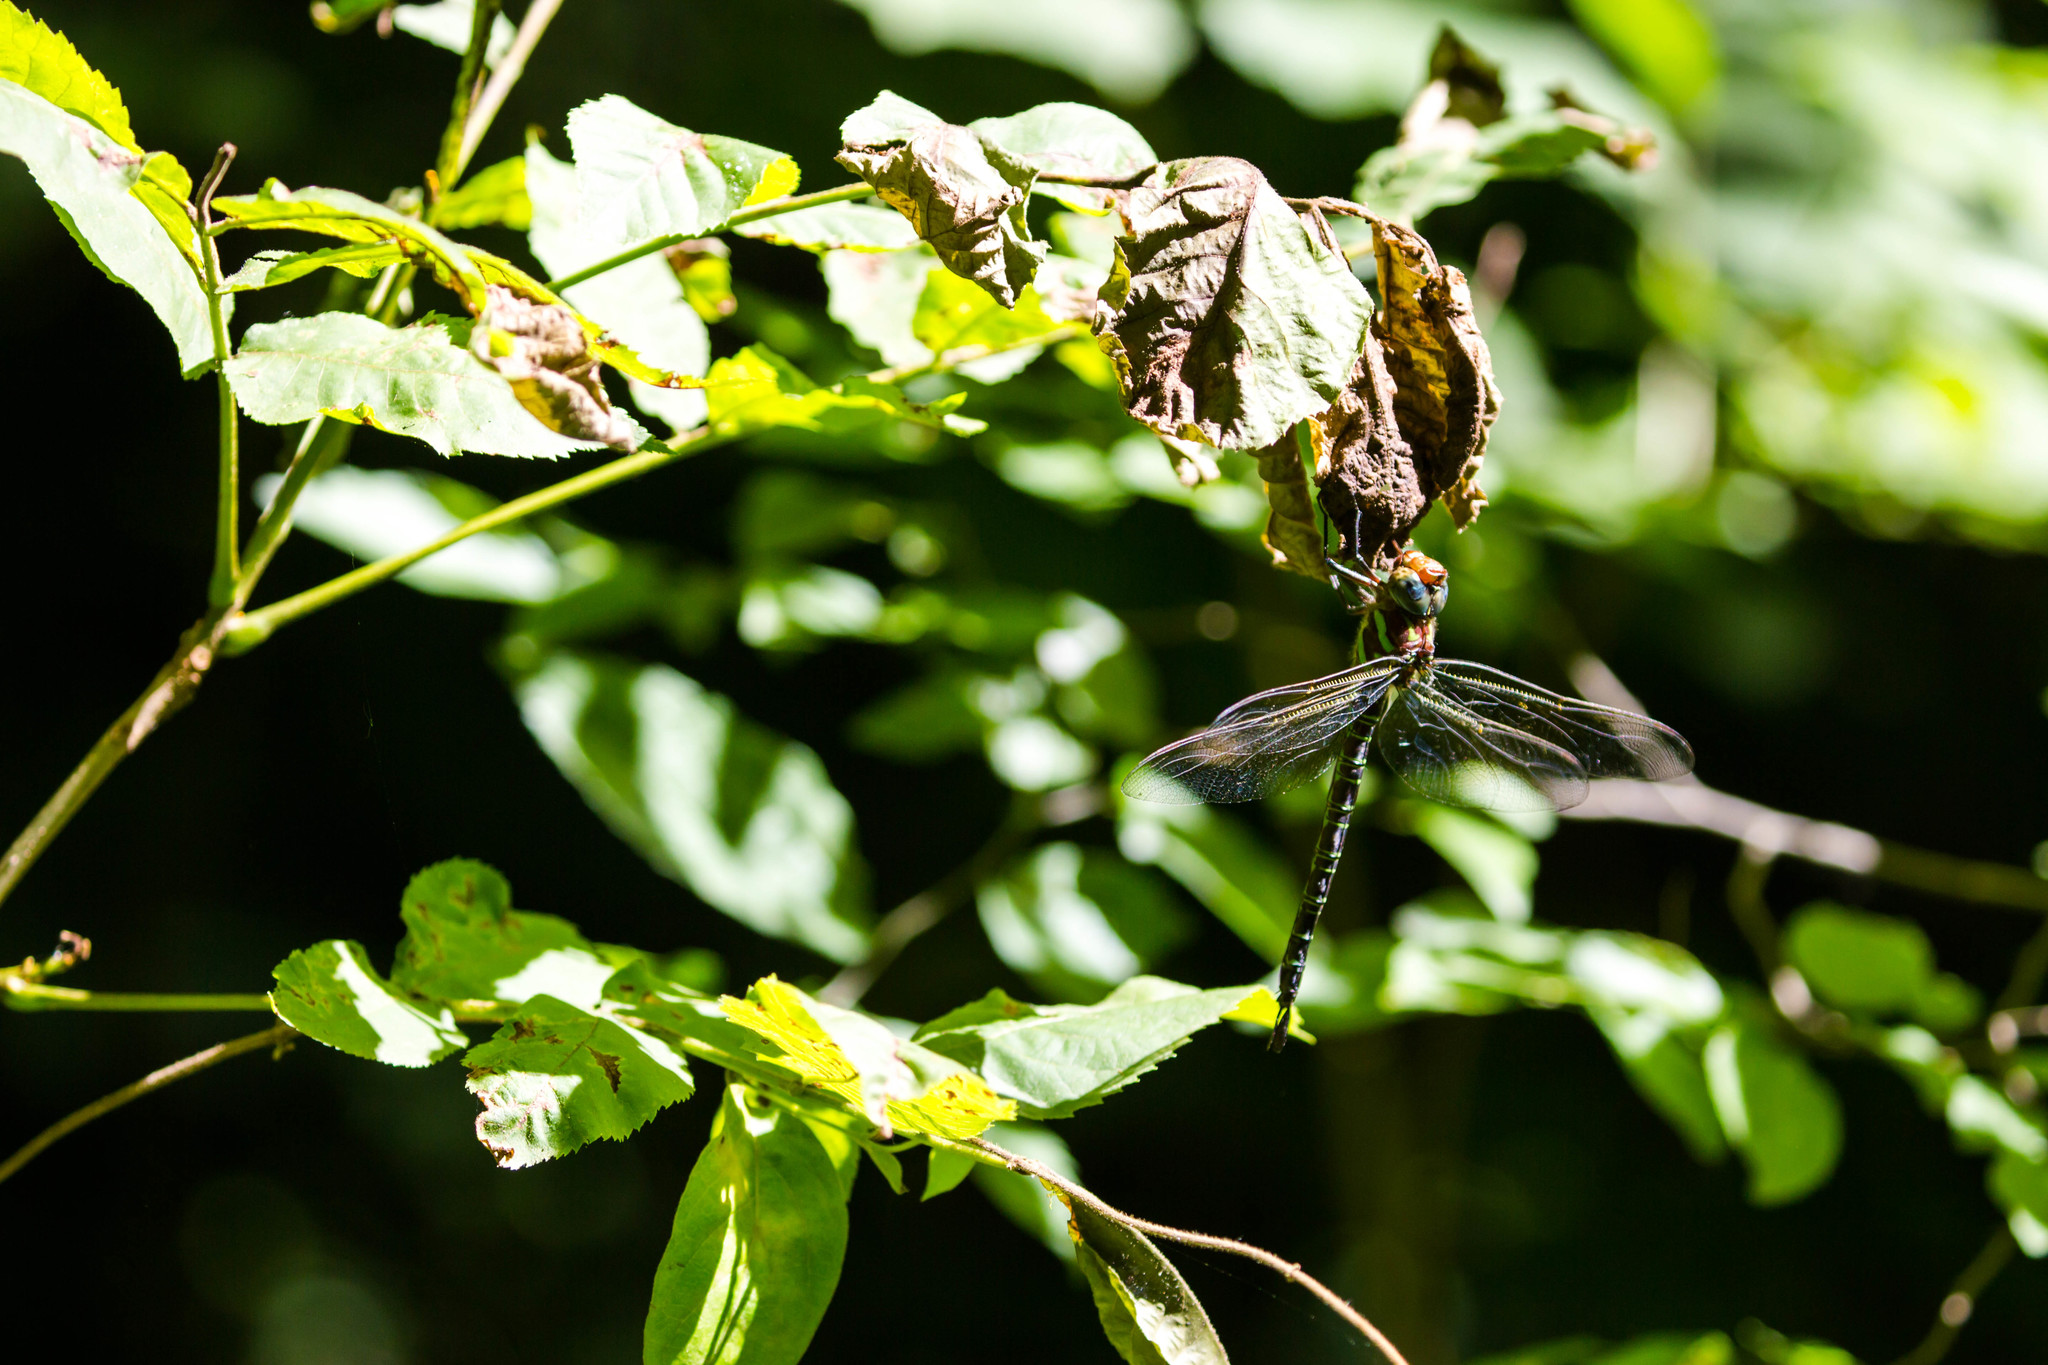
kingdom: Animalia
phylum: Arthropoda
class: Insecta
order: Odonata
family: Aeshnidae
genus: Epiaeschna
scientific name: Epiaeschna heros
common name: Swamp darner
